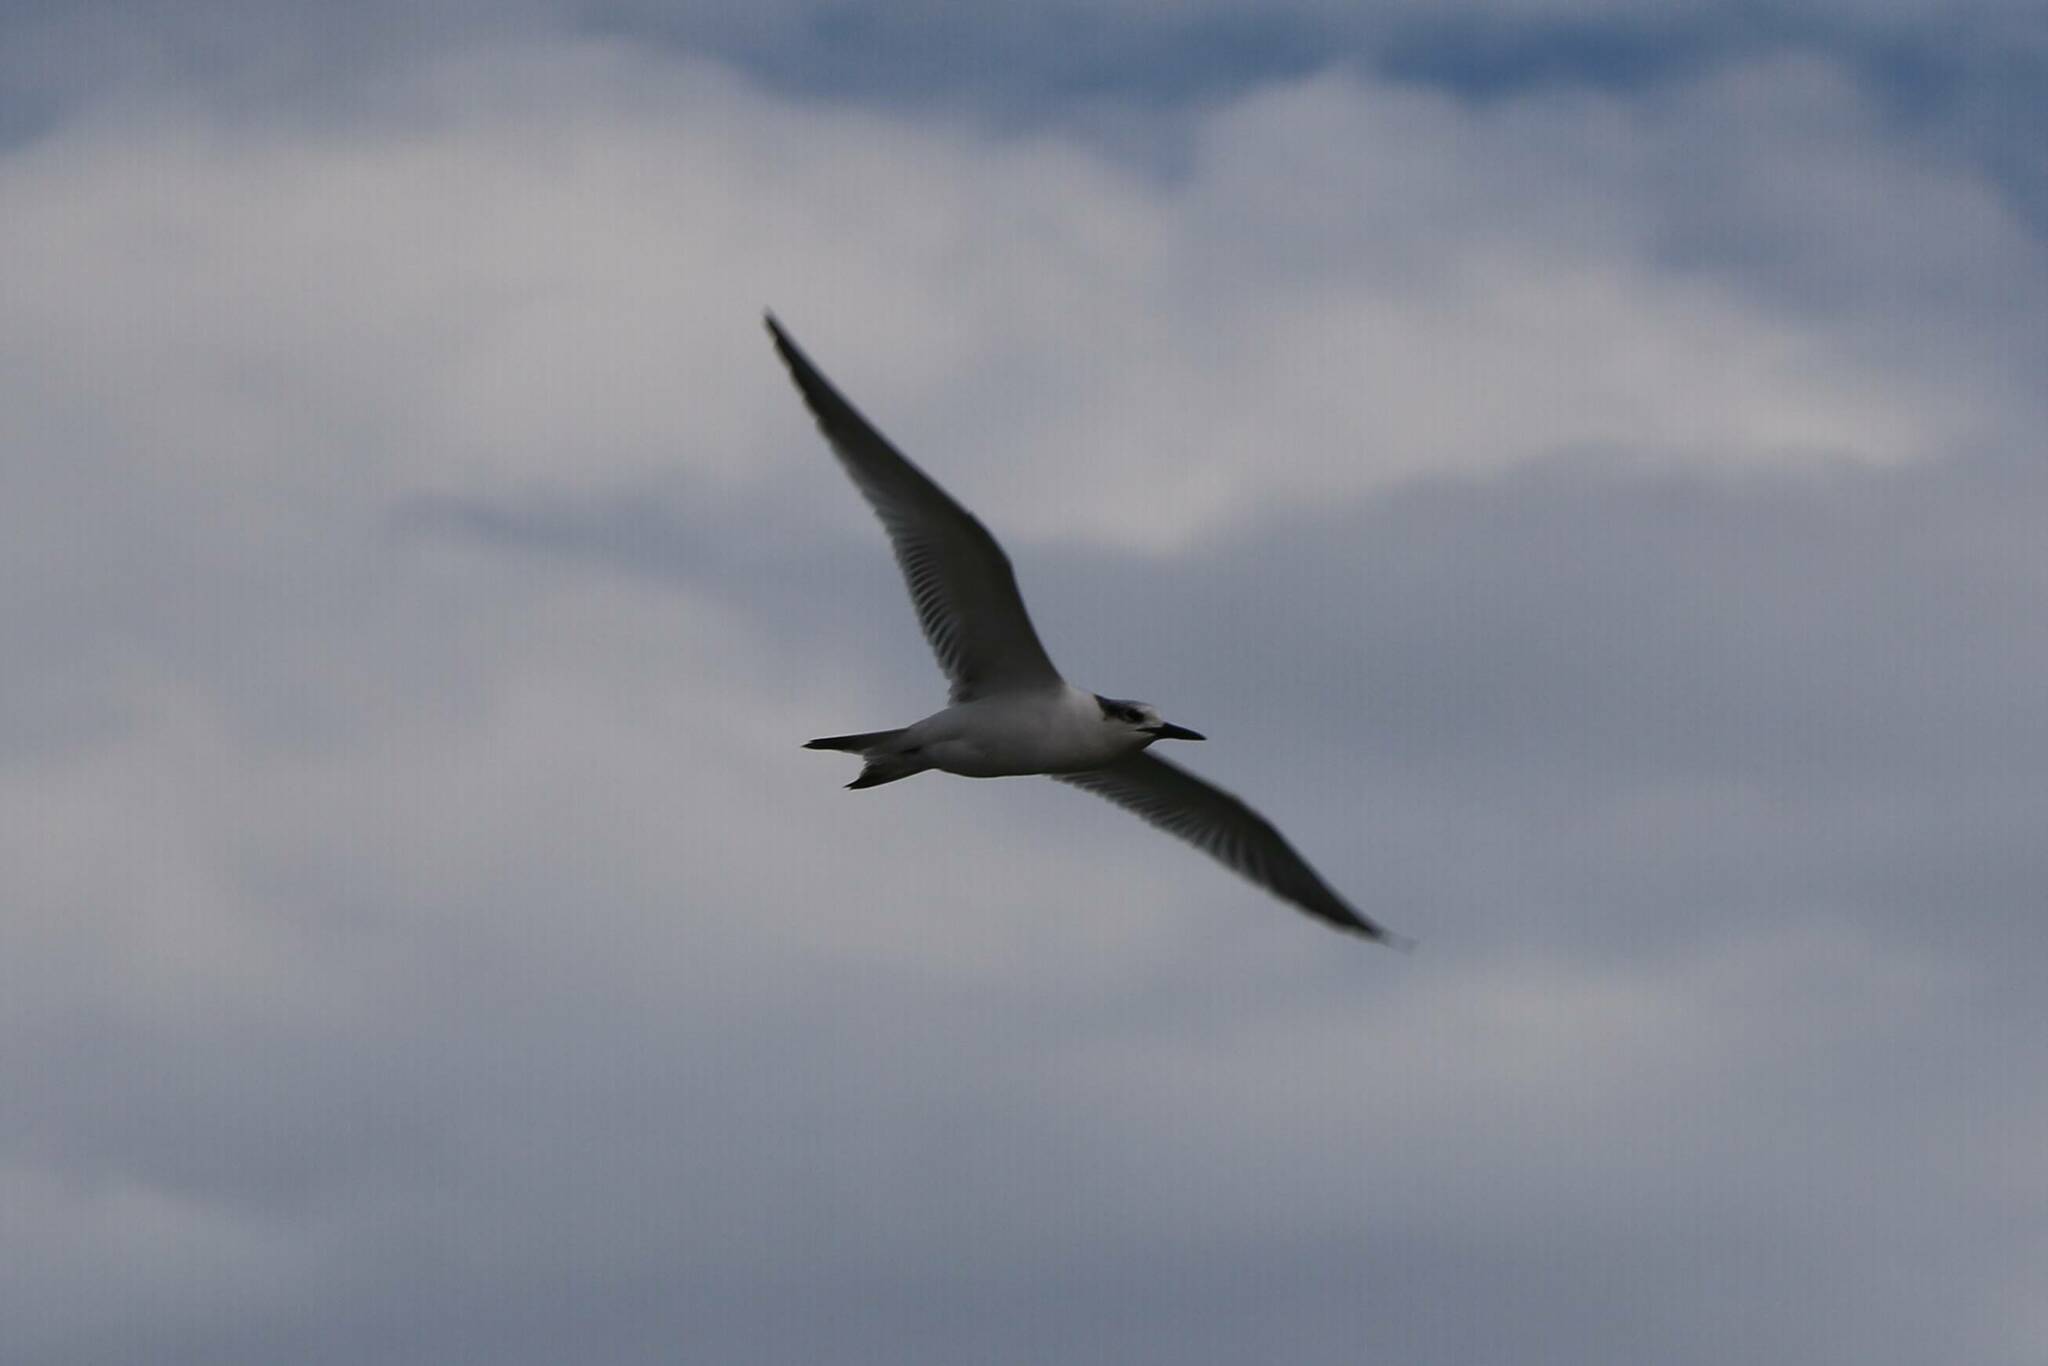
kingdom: Animalia
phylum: Chordata
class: Aves
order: Charadriiformes
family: Laridae
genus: Thalasseus
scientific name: Thalasseus sandvicensis
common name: Sandwich tern
